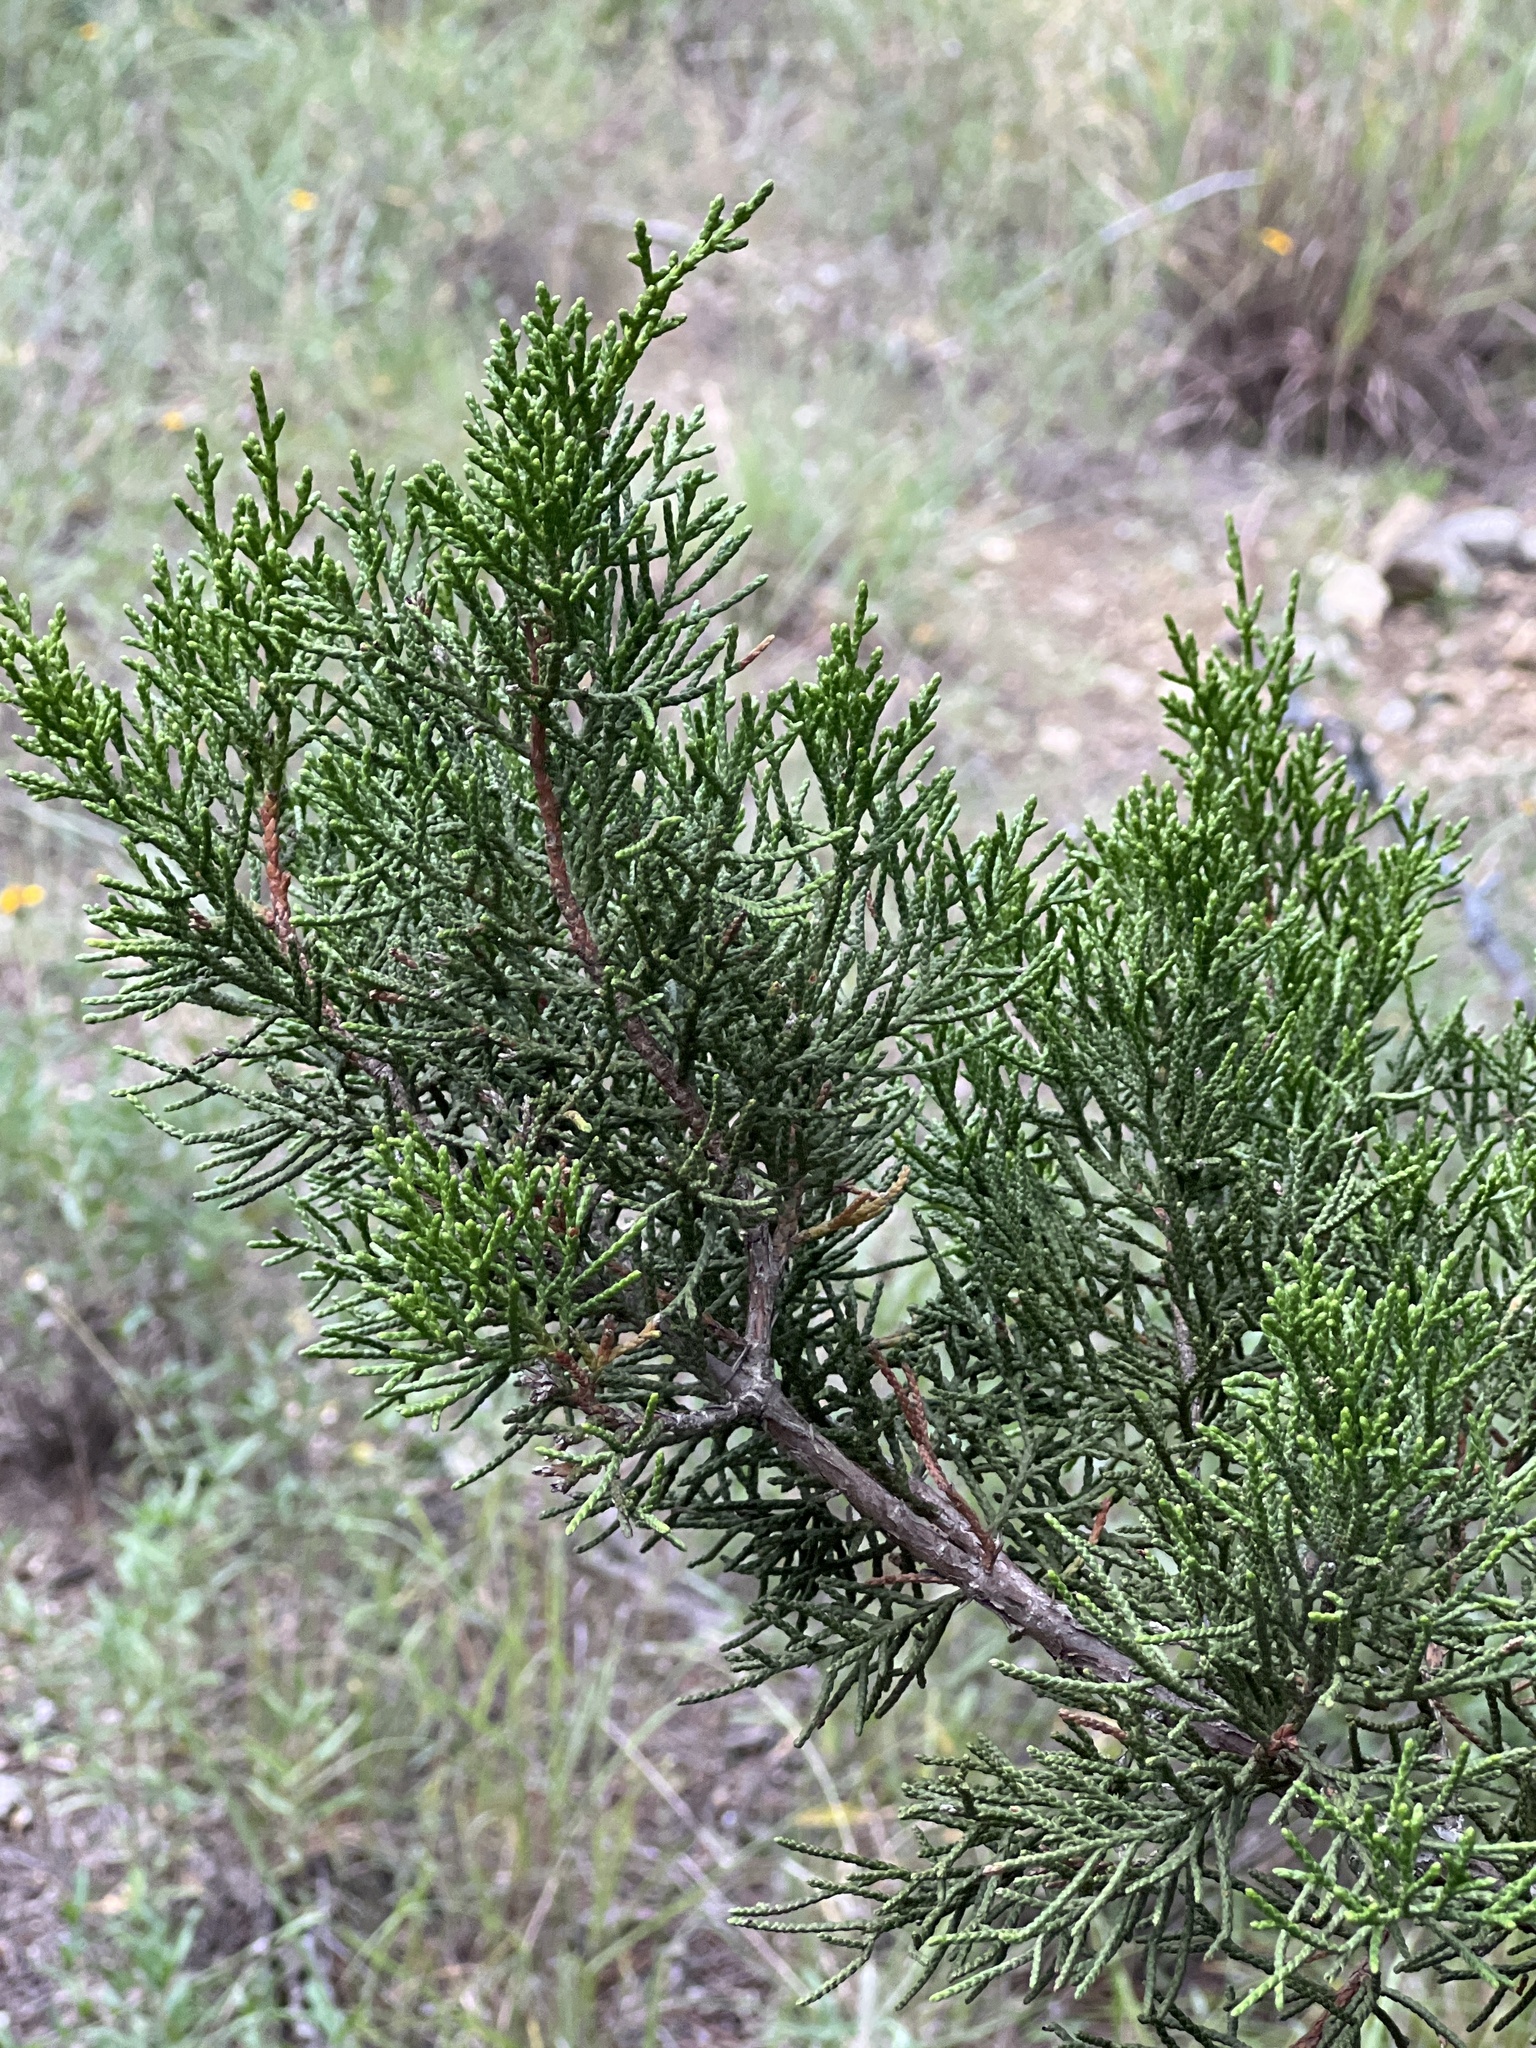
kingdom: Plantae
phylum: Tracheophyta
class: Pinopsida
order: Pinales
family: Cupressaceae
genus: Juniperus
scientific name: Juniperus ashei
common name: Mexican juniper
